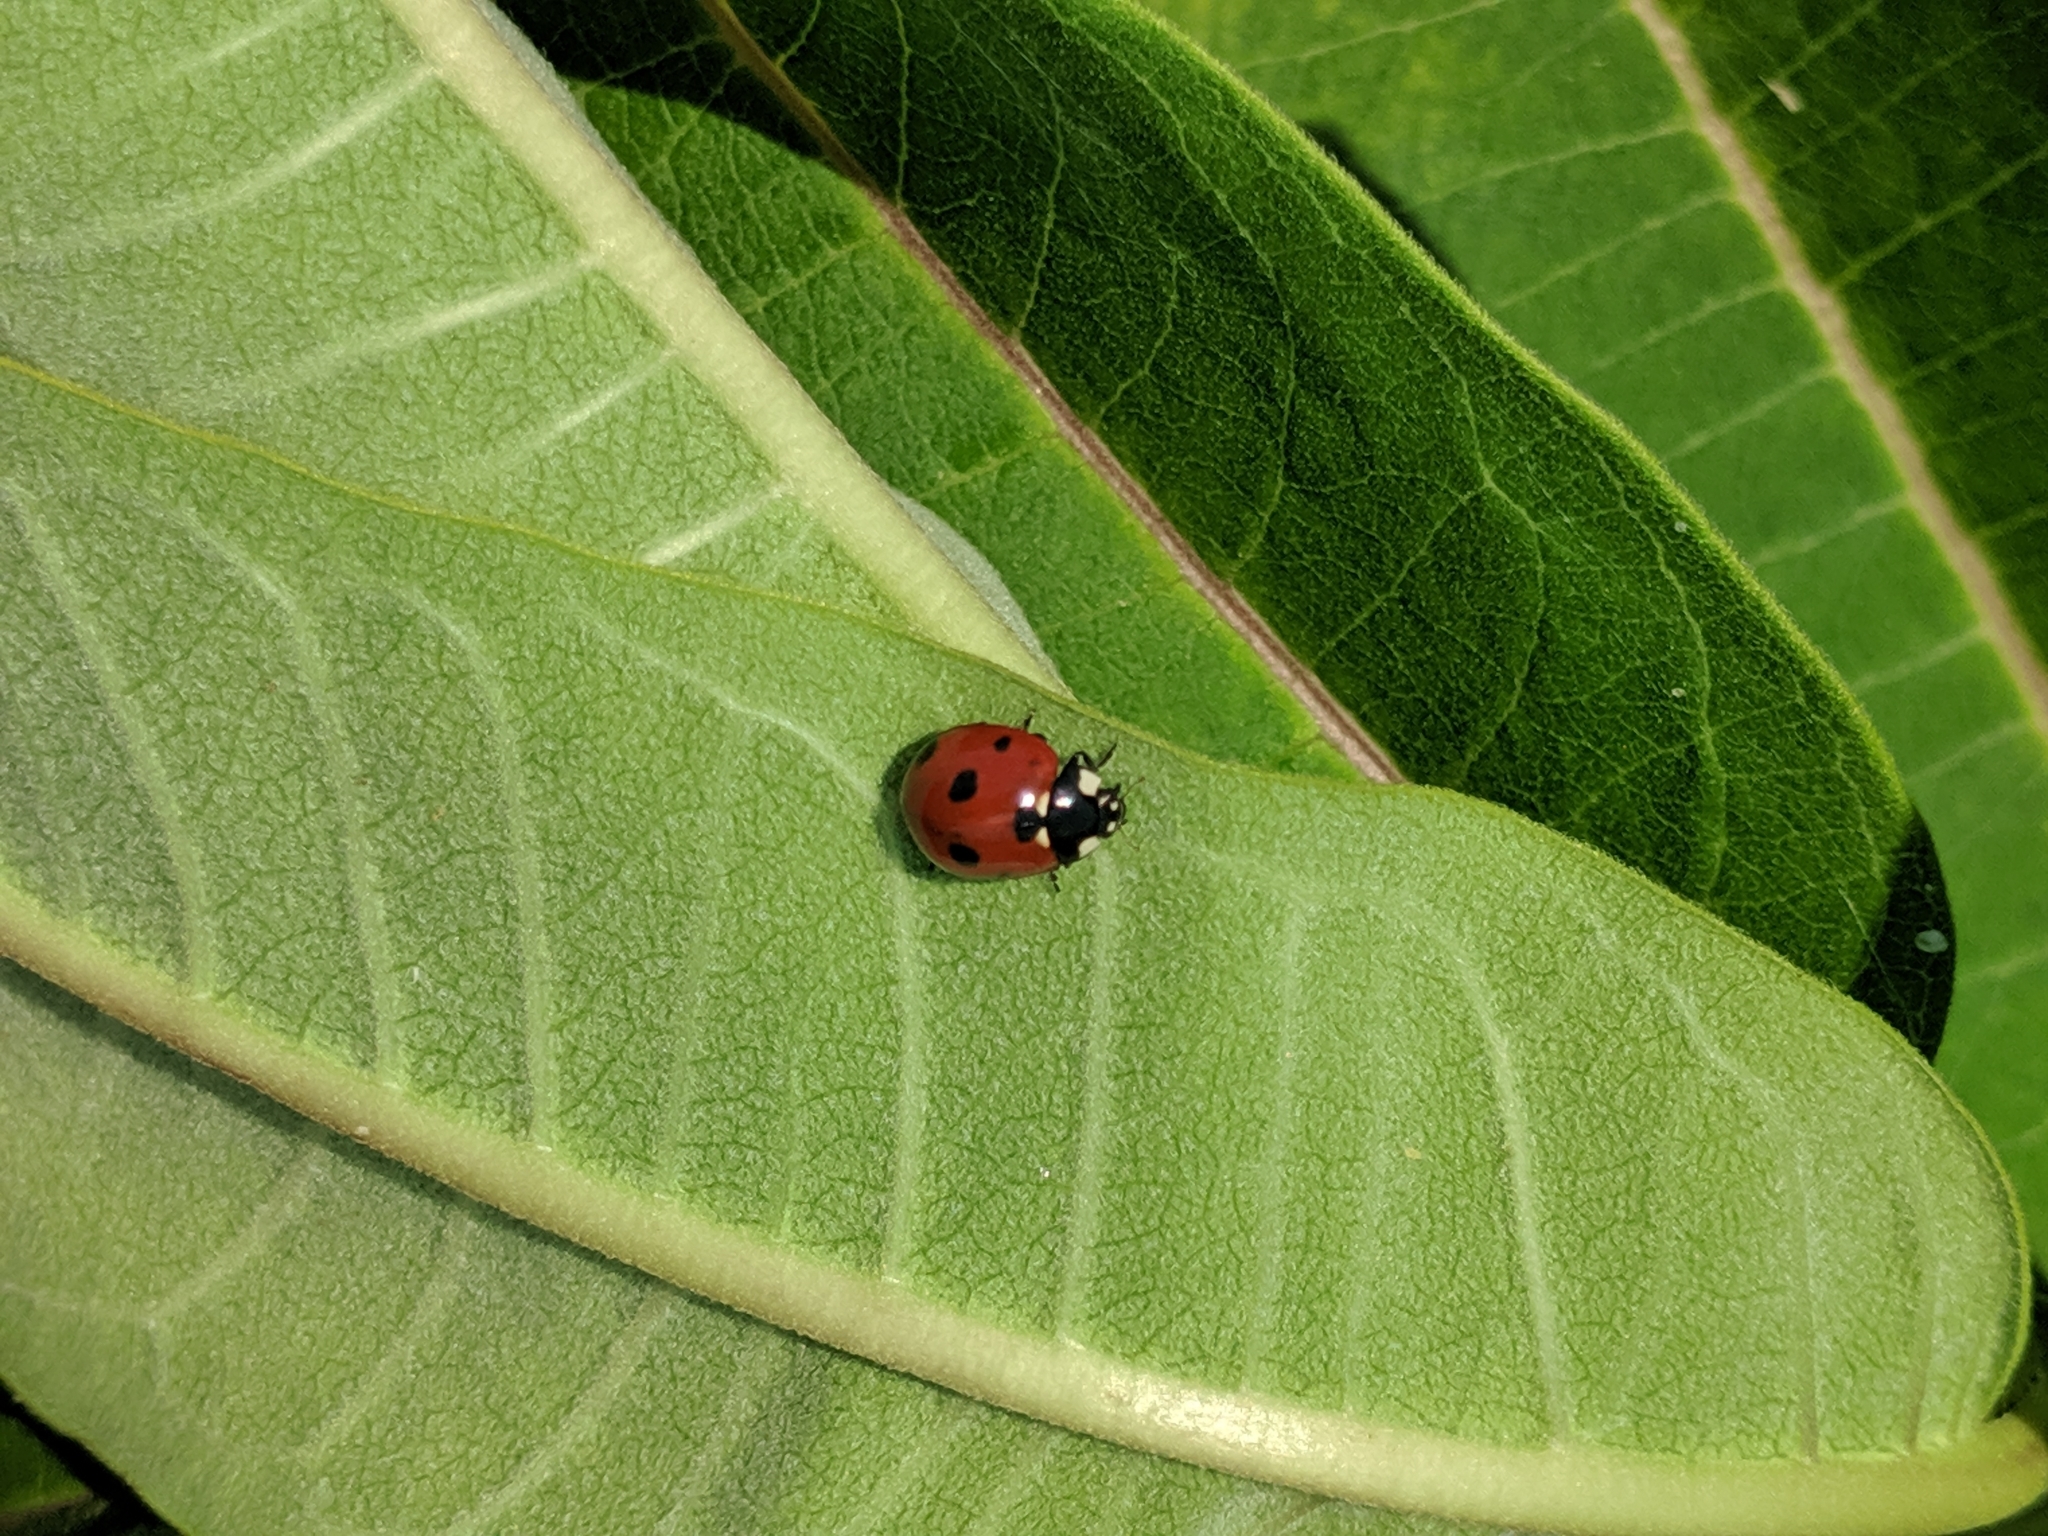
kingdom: Animalia
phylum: Arthropoda
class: Insecta
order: Coleoptera
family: Coccinellidae
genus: Coccinella
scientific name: Coccinella septempunctata
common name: Sevenspotted lady beetle
